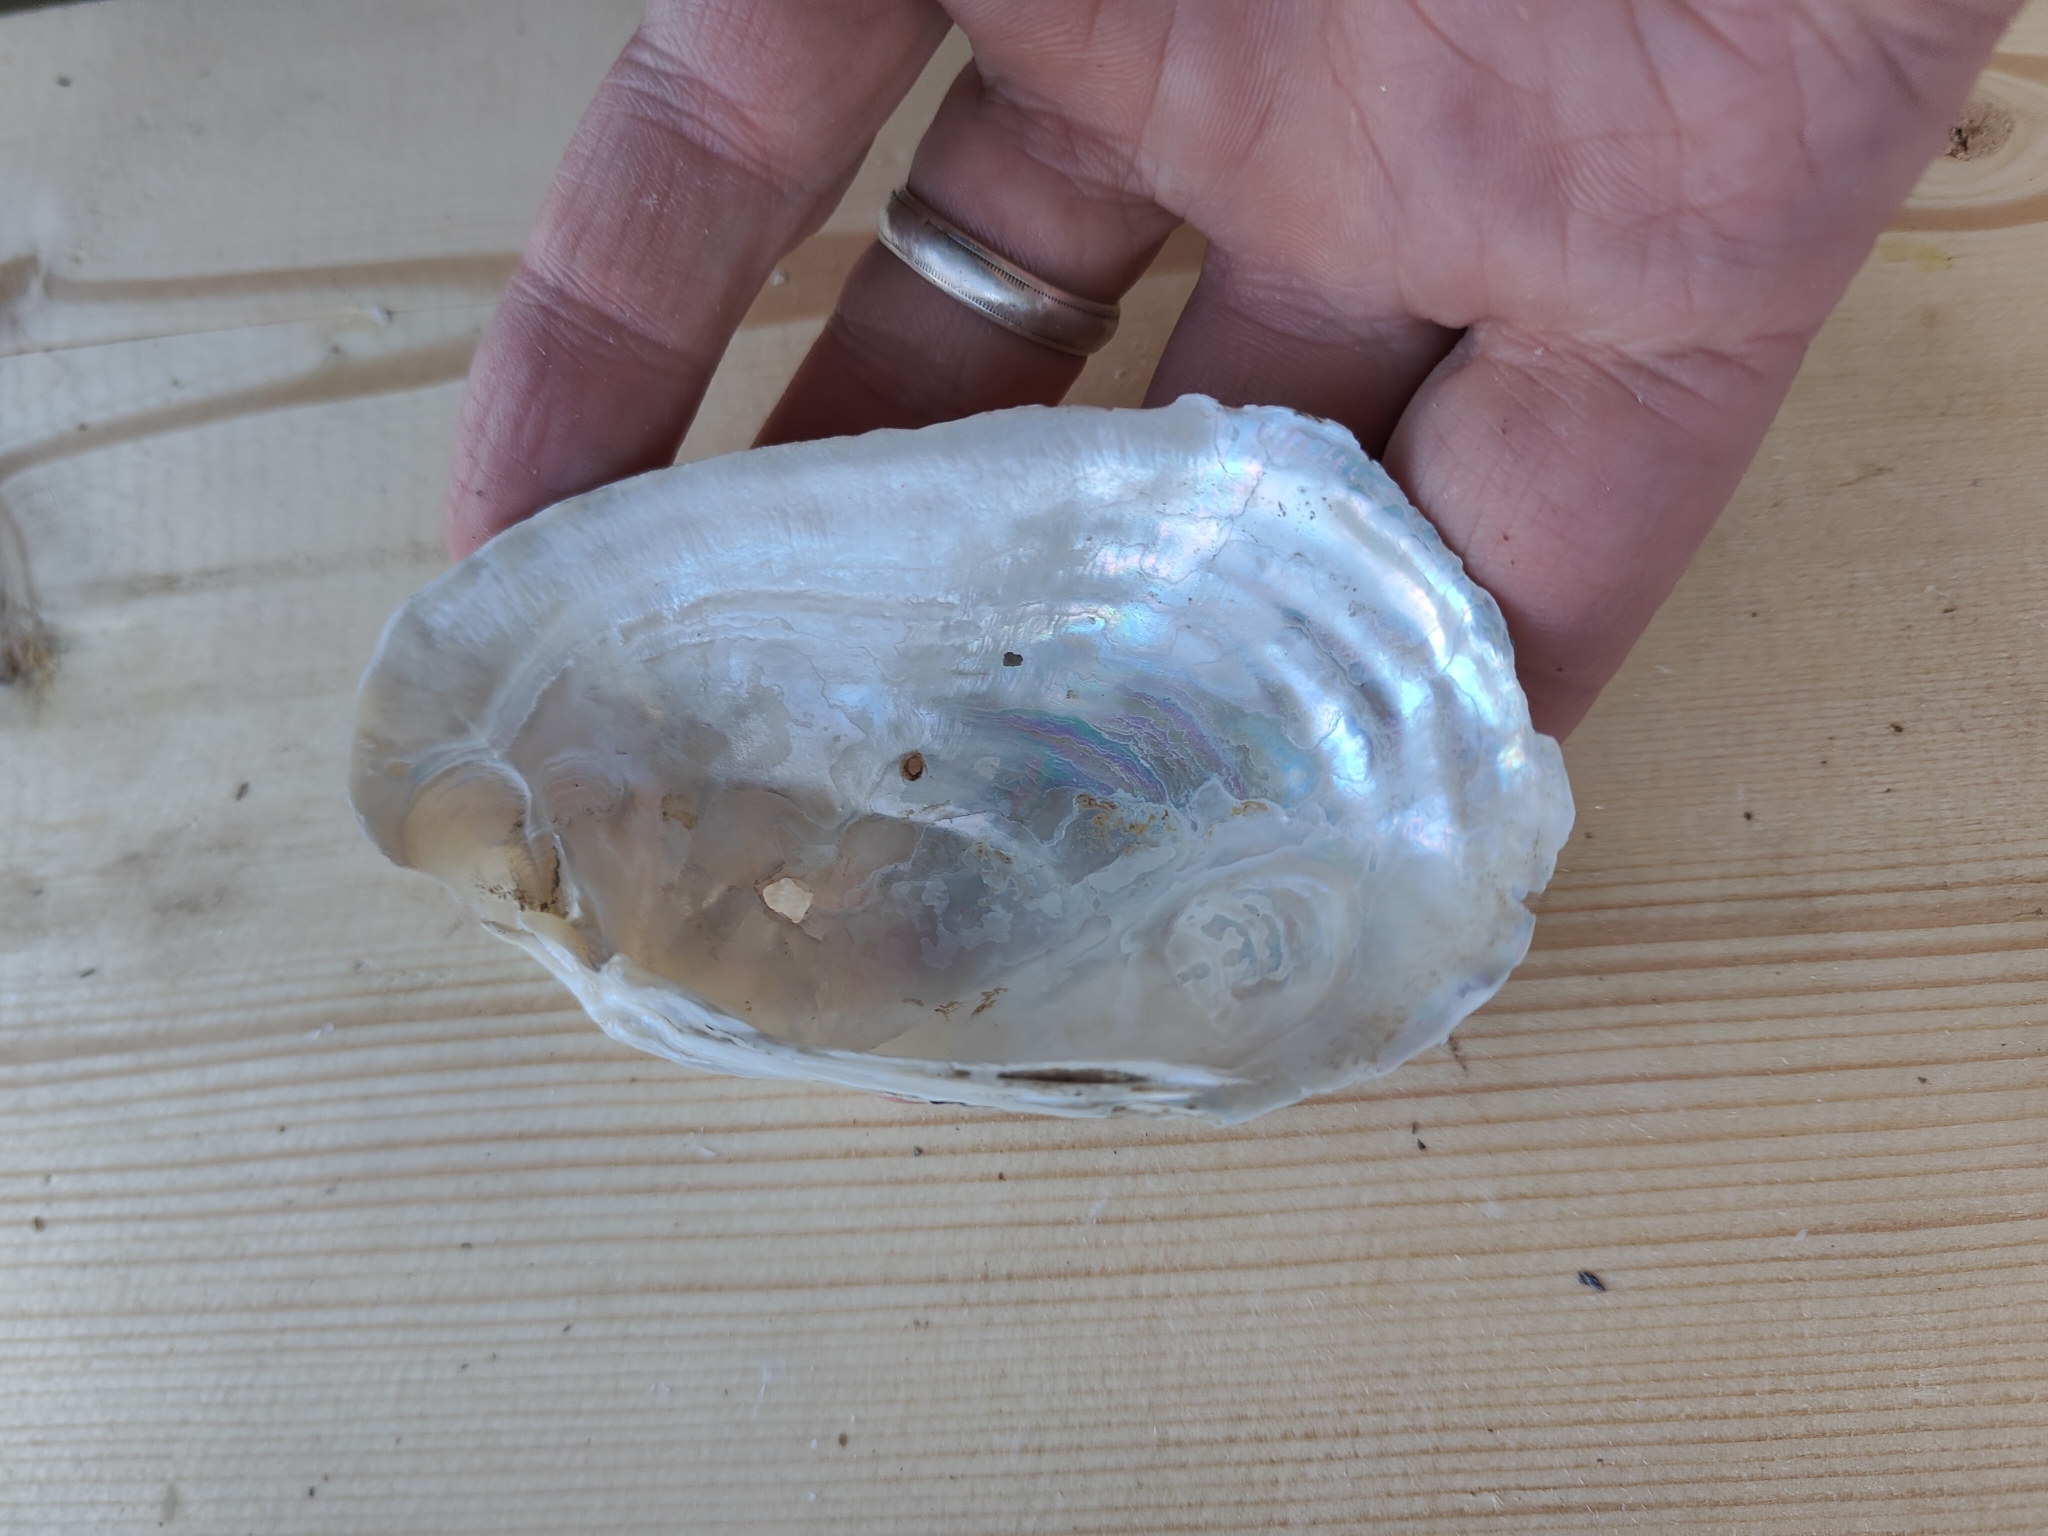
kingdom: Animalia
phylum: Mollusca
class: Bivalvia
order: Unionida
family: Unionidae
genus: Lampsilis
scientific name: Lampsilis siliquoidea
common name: Fatmucket
